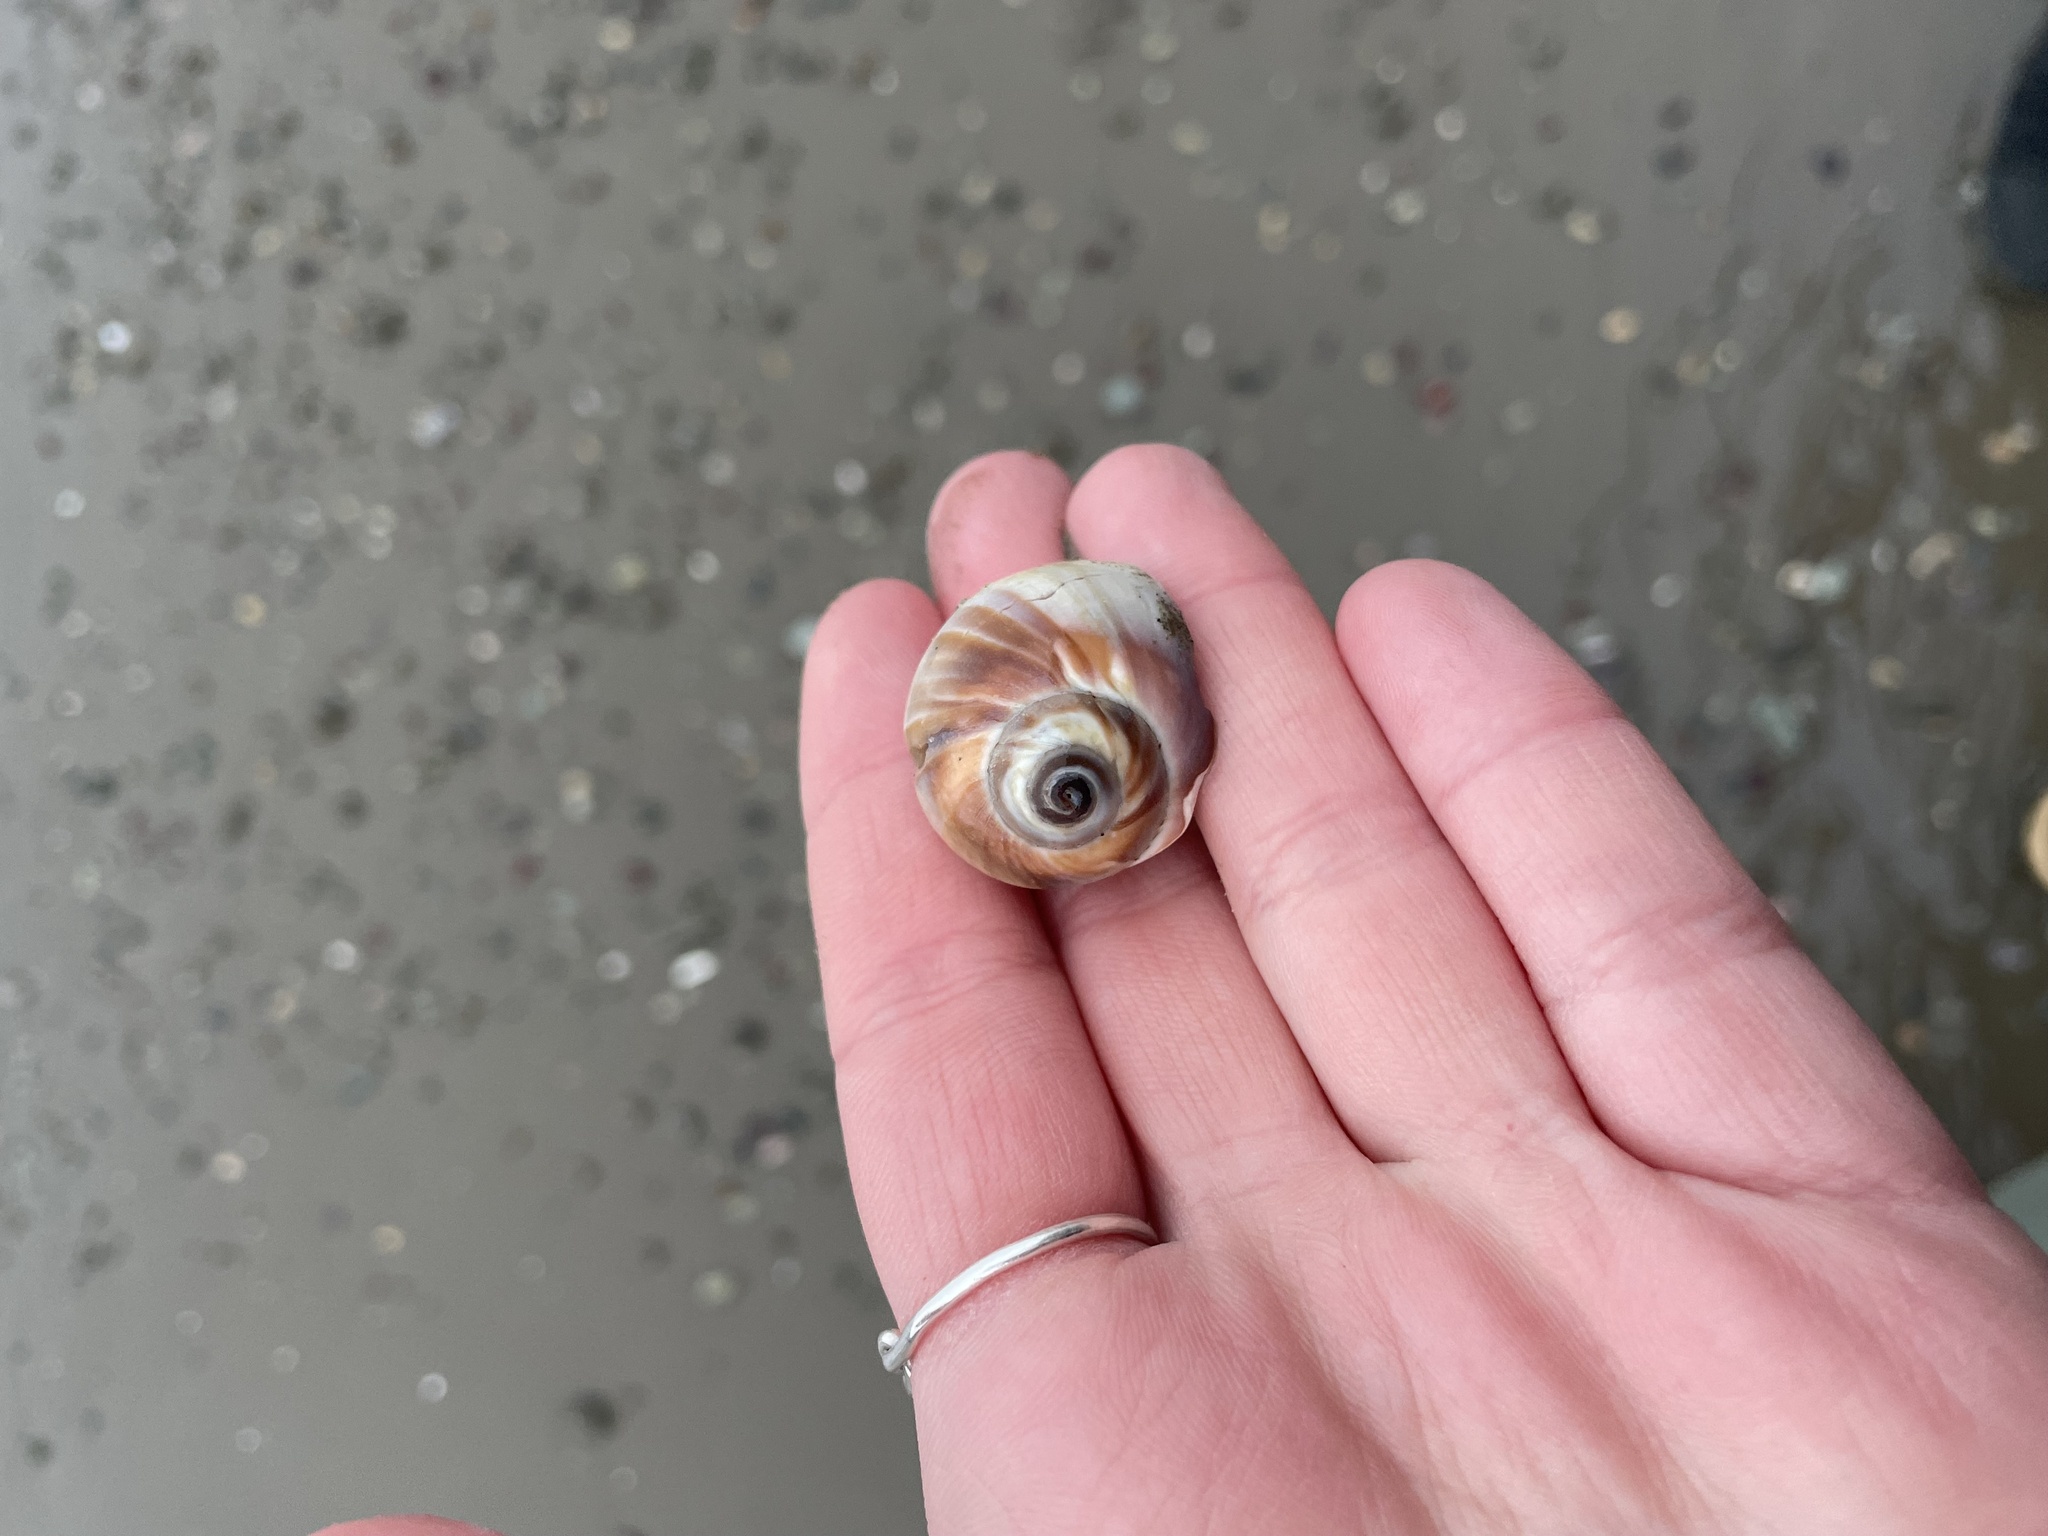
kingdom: Animalia
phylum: Mollusca
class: Gastropoda
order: Littorinimorpha
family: Naticidae
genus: Euspira
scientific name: Euspira heros
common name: Common northern moonsnail
